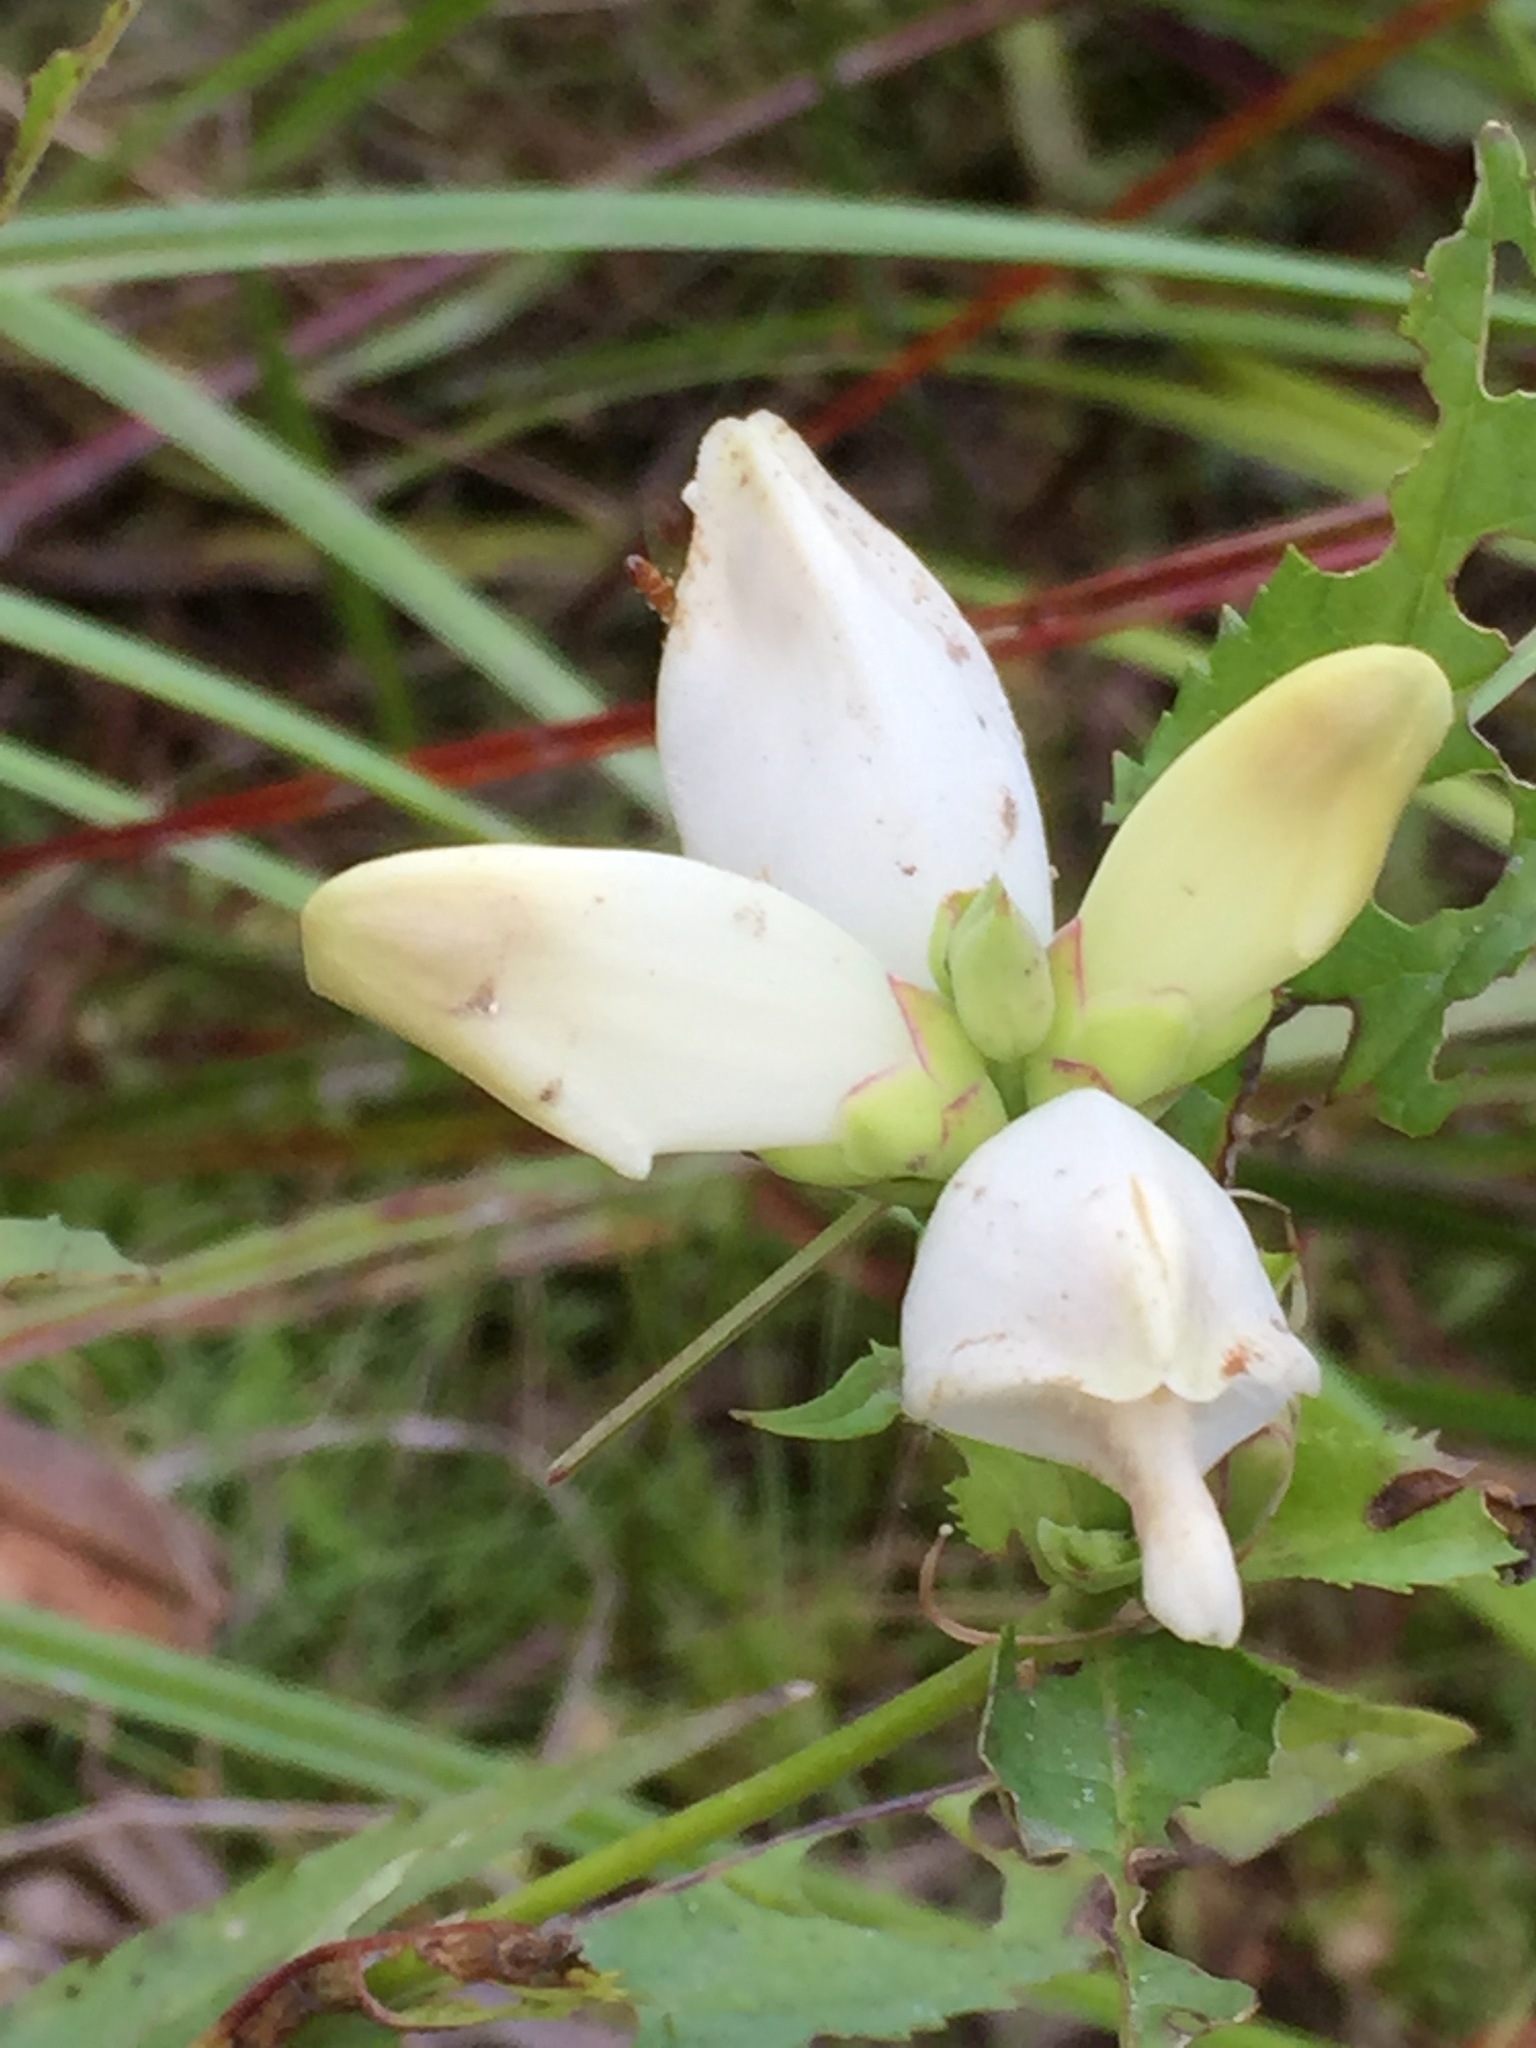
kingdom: Plantae
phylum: Tracheophyta
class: Magnoliopsida
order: Lamiales
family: Plantaginaceae
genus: Chelone
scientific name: Chelone glabra
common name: Snakehead
